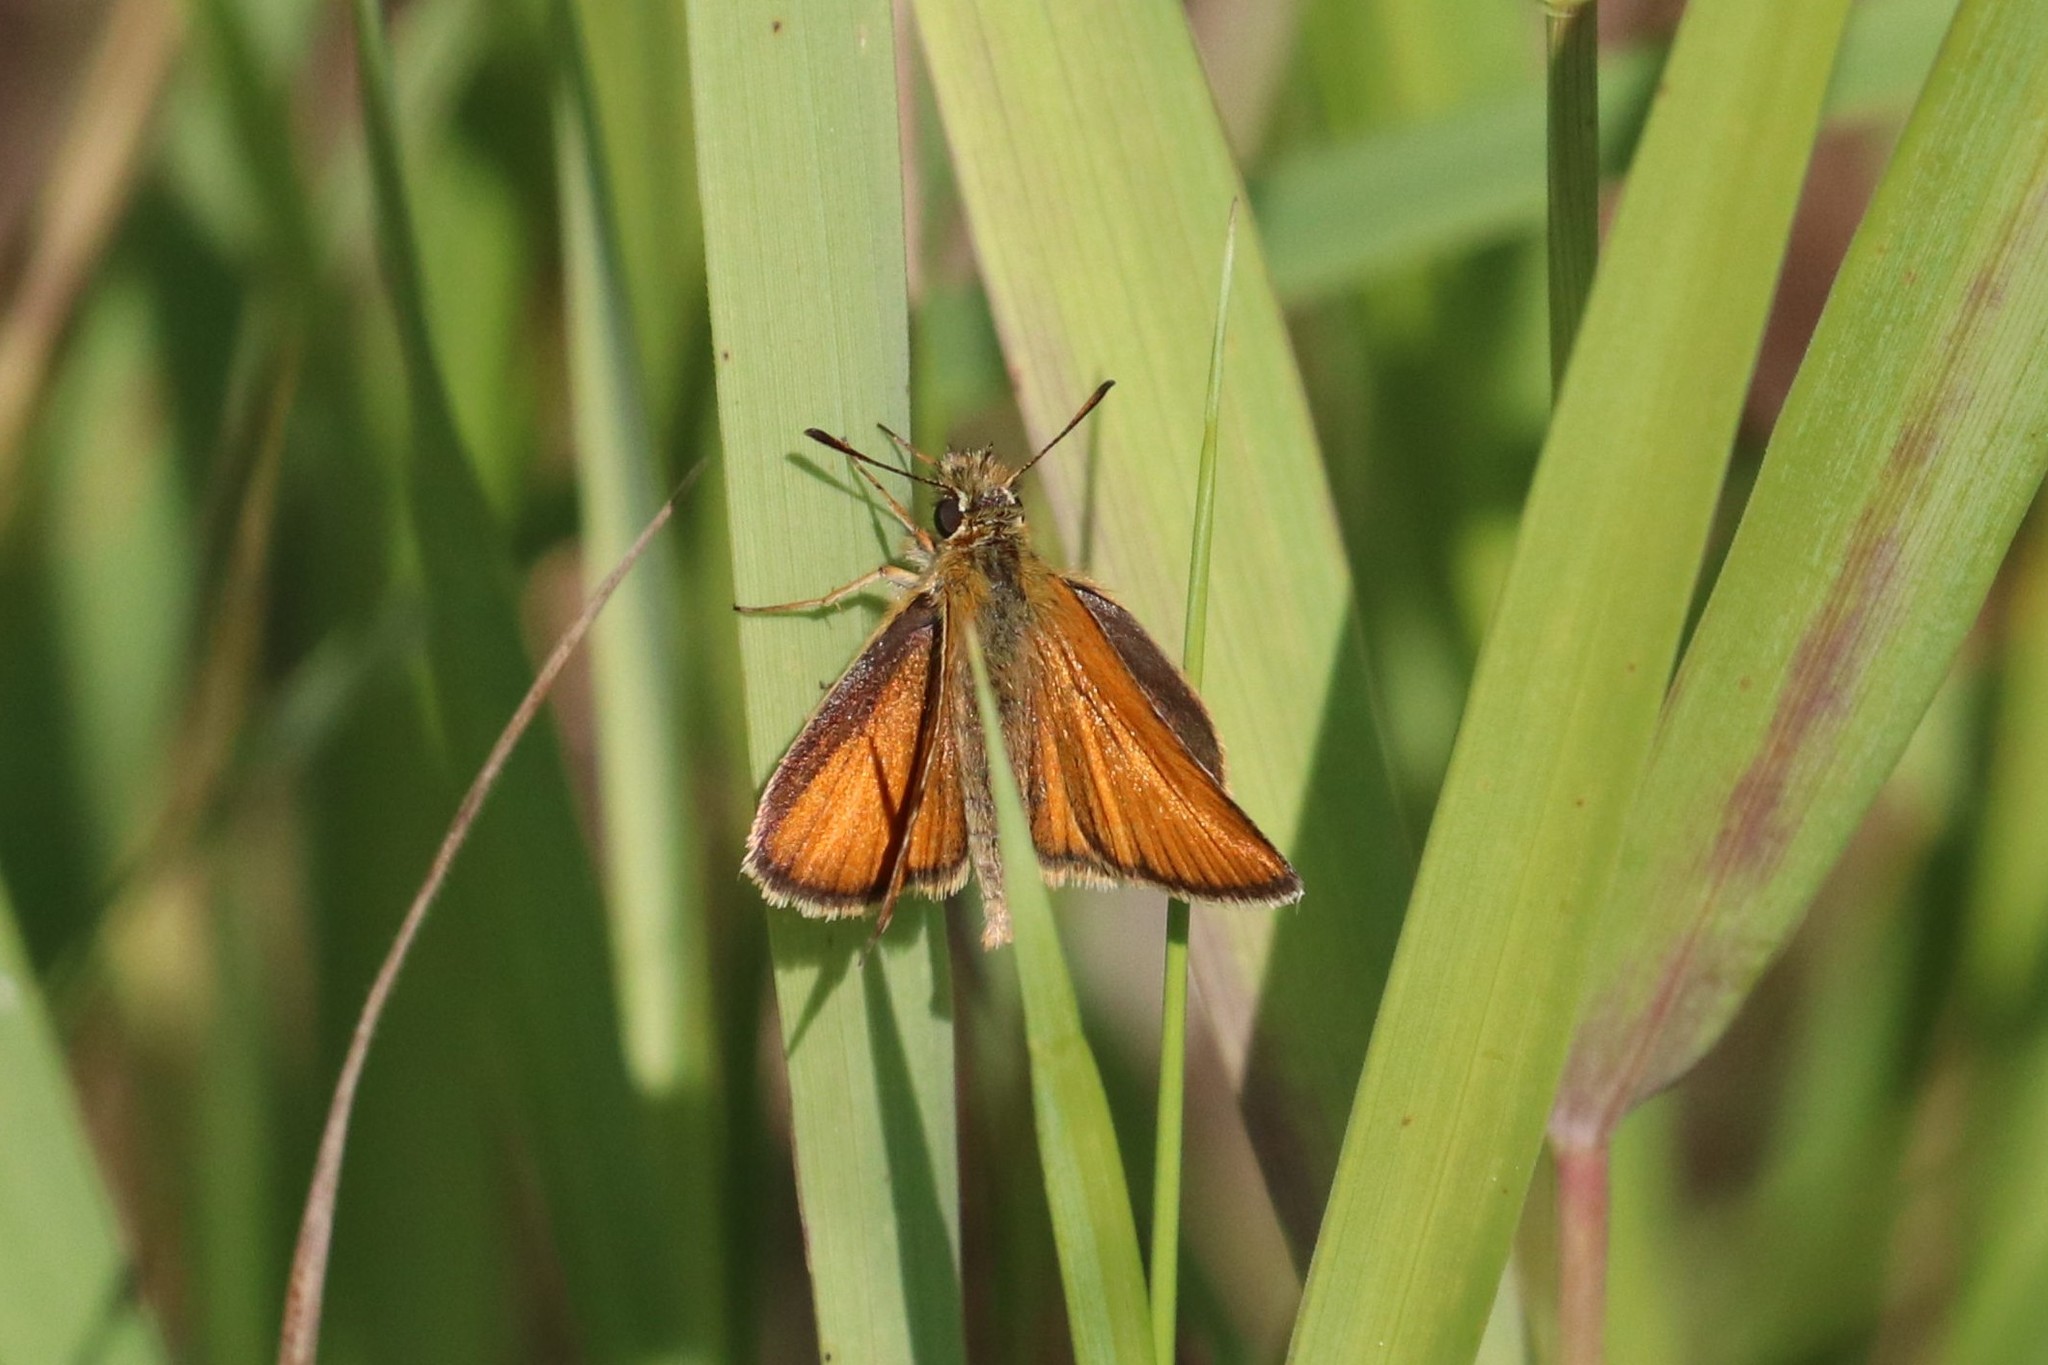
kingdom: Animalia
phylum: Arthropoda
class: Insecta
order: Lepidoptera
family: Hesperiidae
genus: Thymelicus
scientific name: Thymelicus lineola
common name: Essex skipper
